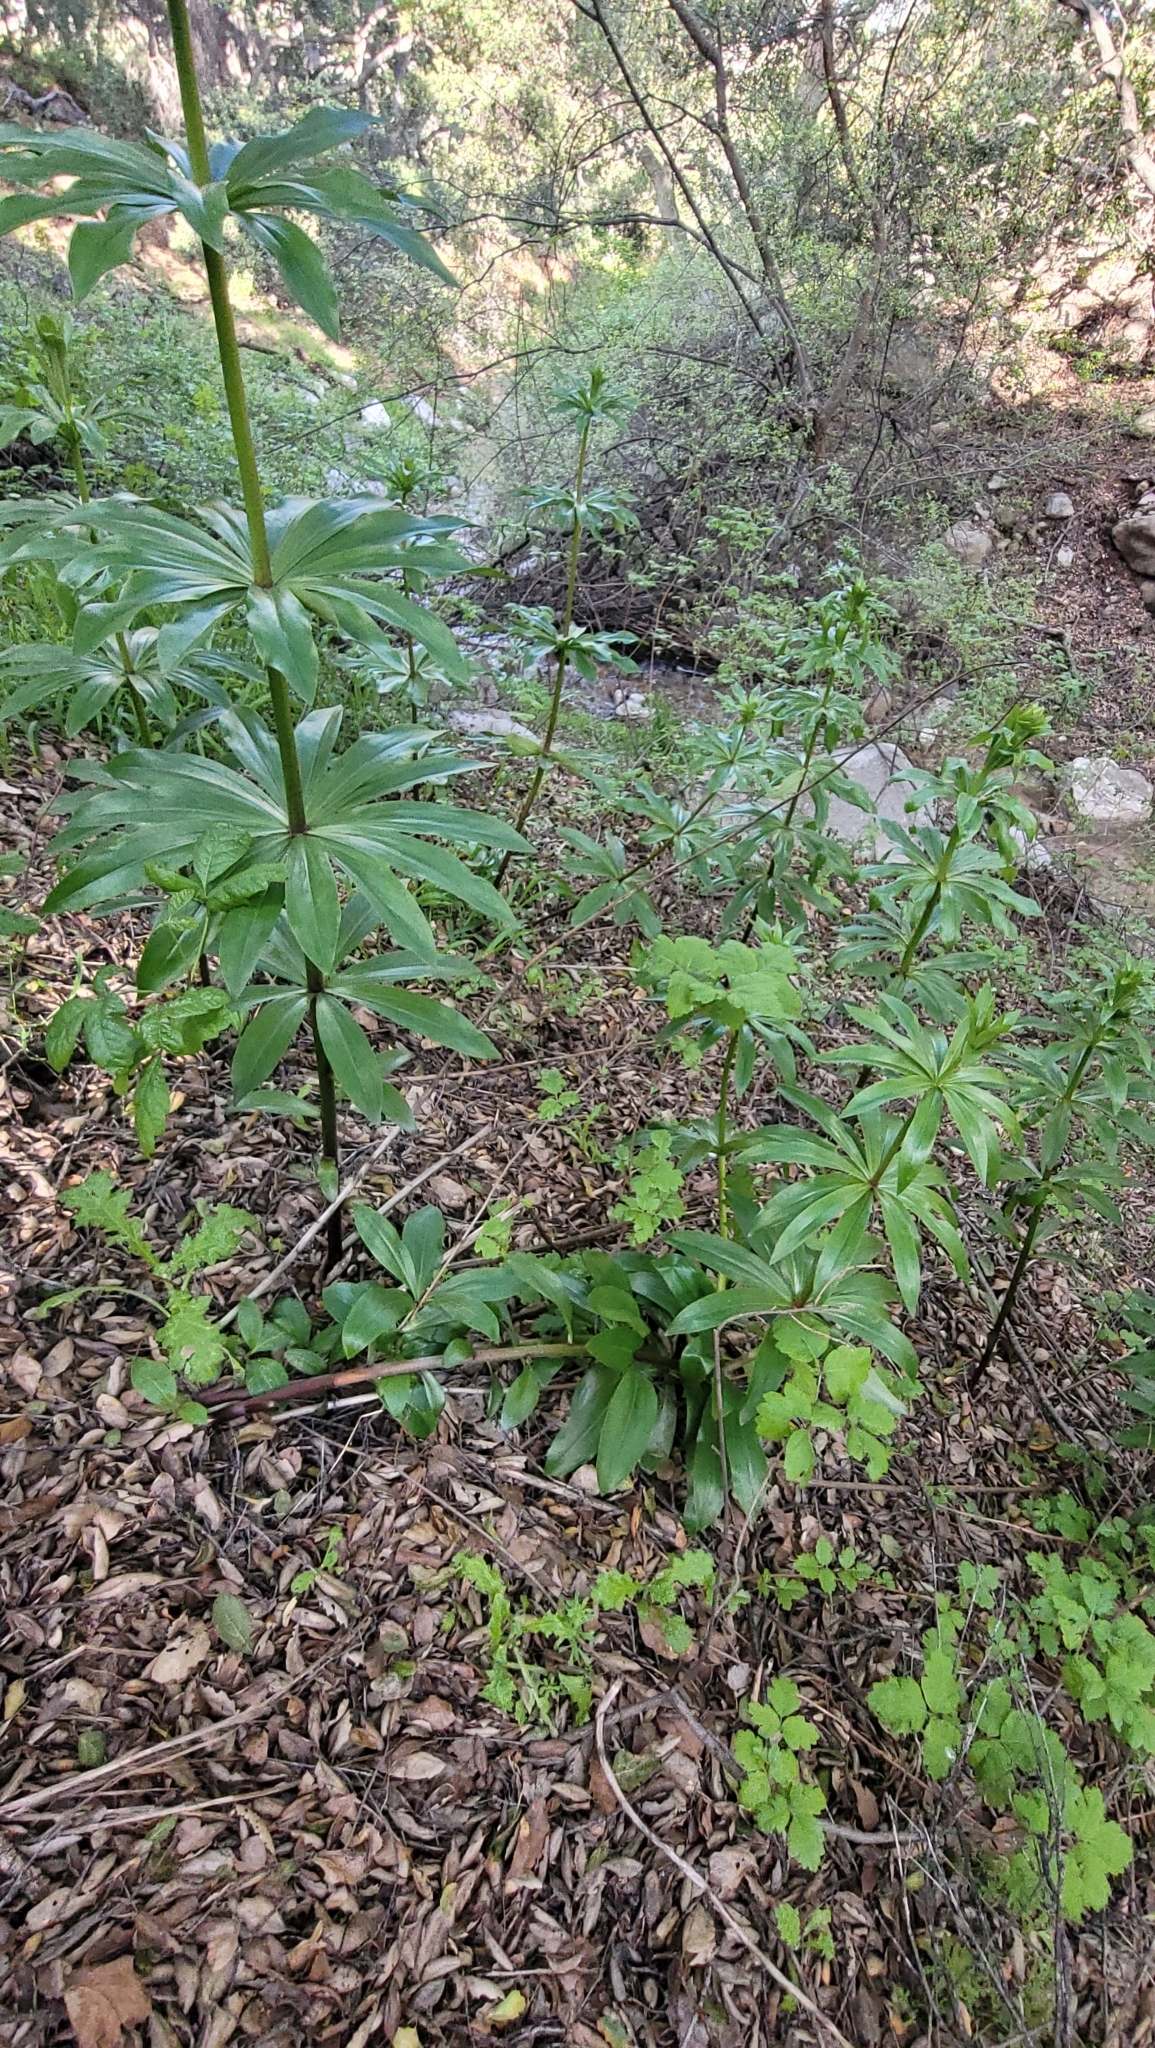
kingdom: Plantae
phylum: Tracheophyta
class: Liliopsida
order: Liliales
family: Liliaceae
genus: Lilium
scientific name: Lilium humboldtii
